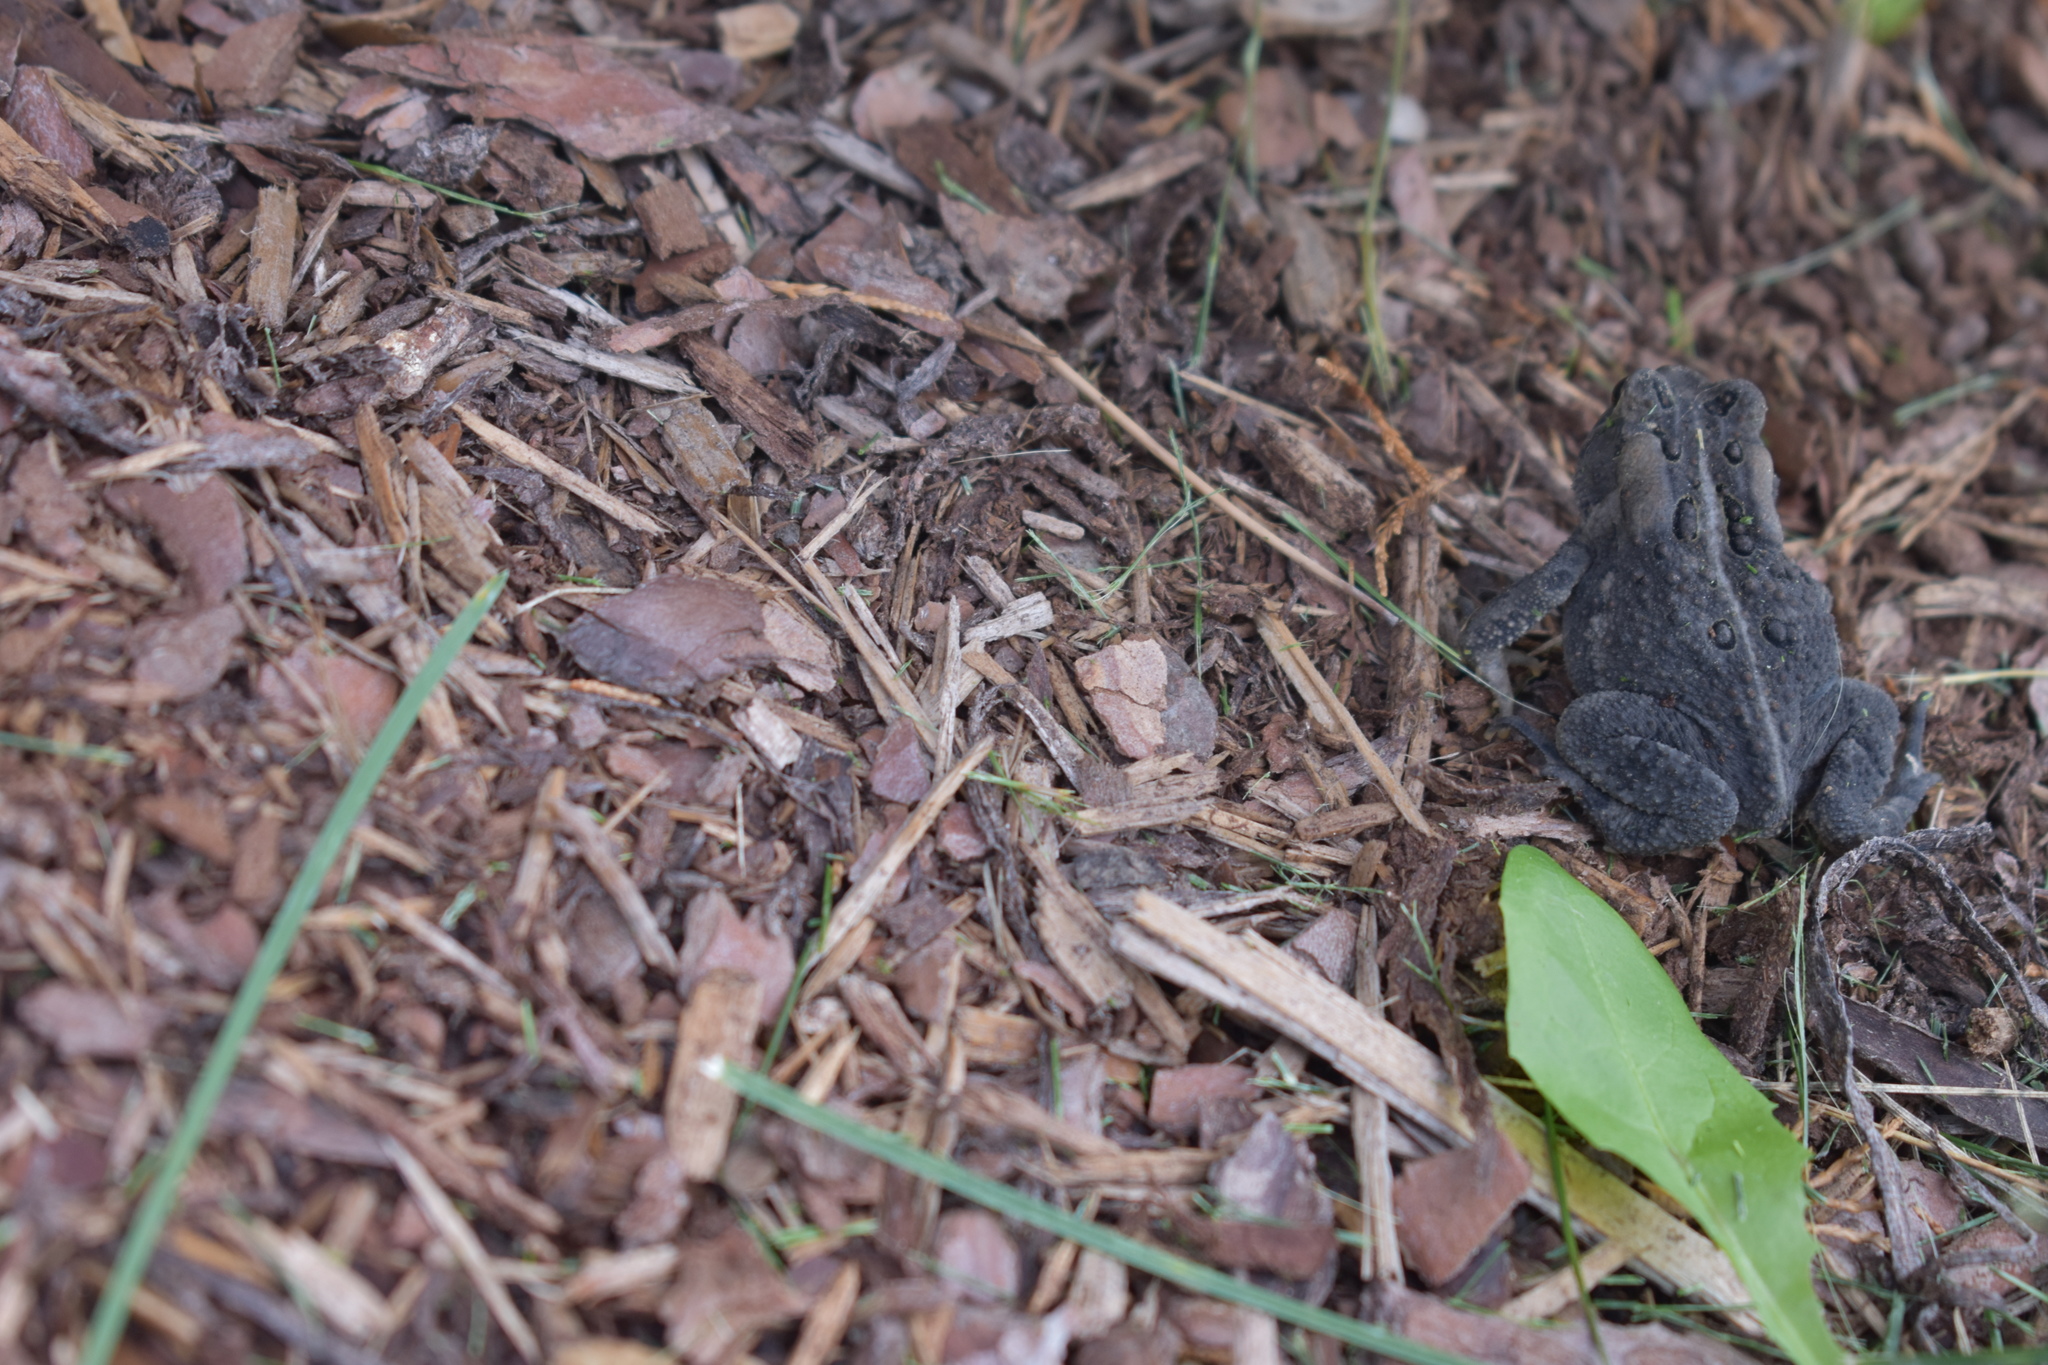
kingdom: Animalia
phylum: Chordata
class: Amphibia
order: Anura
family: Bufonidae
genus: Anaxyrus
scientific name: Anaxyrus americanus
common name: American toad
